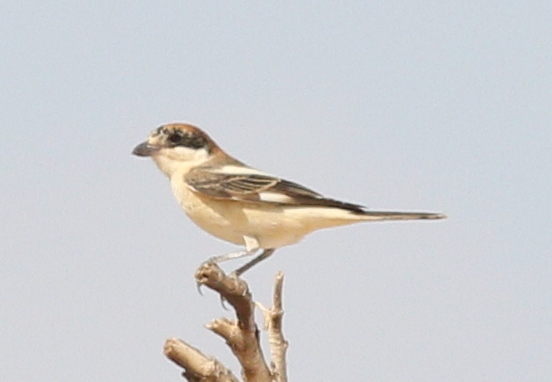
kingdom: Animalia
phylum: Chordata
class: Aves
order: Passeriformes
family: Laniidae
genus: Lanius
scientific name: Lanius senator
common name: Woodchat shrike
